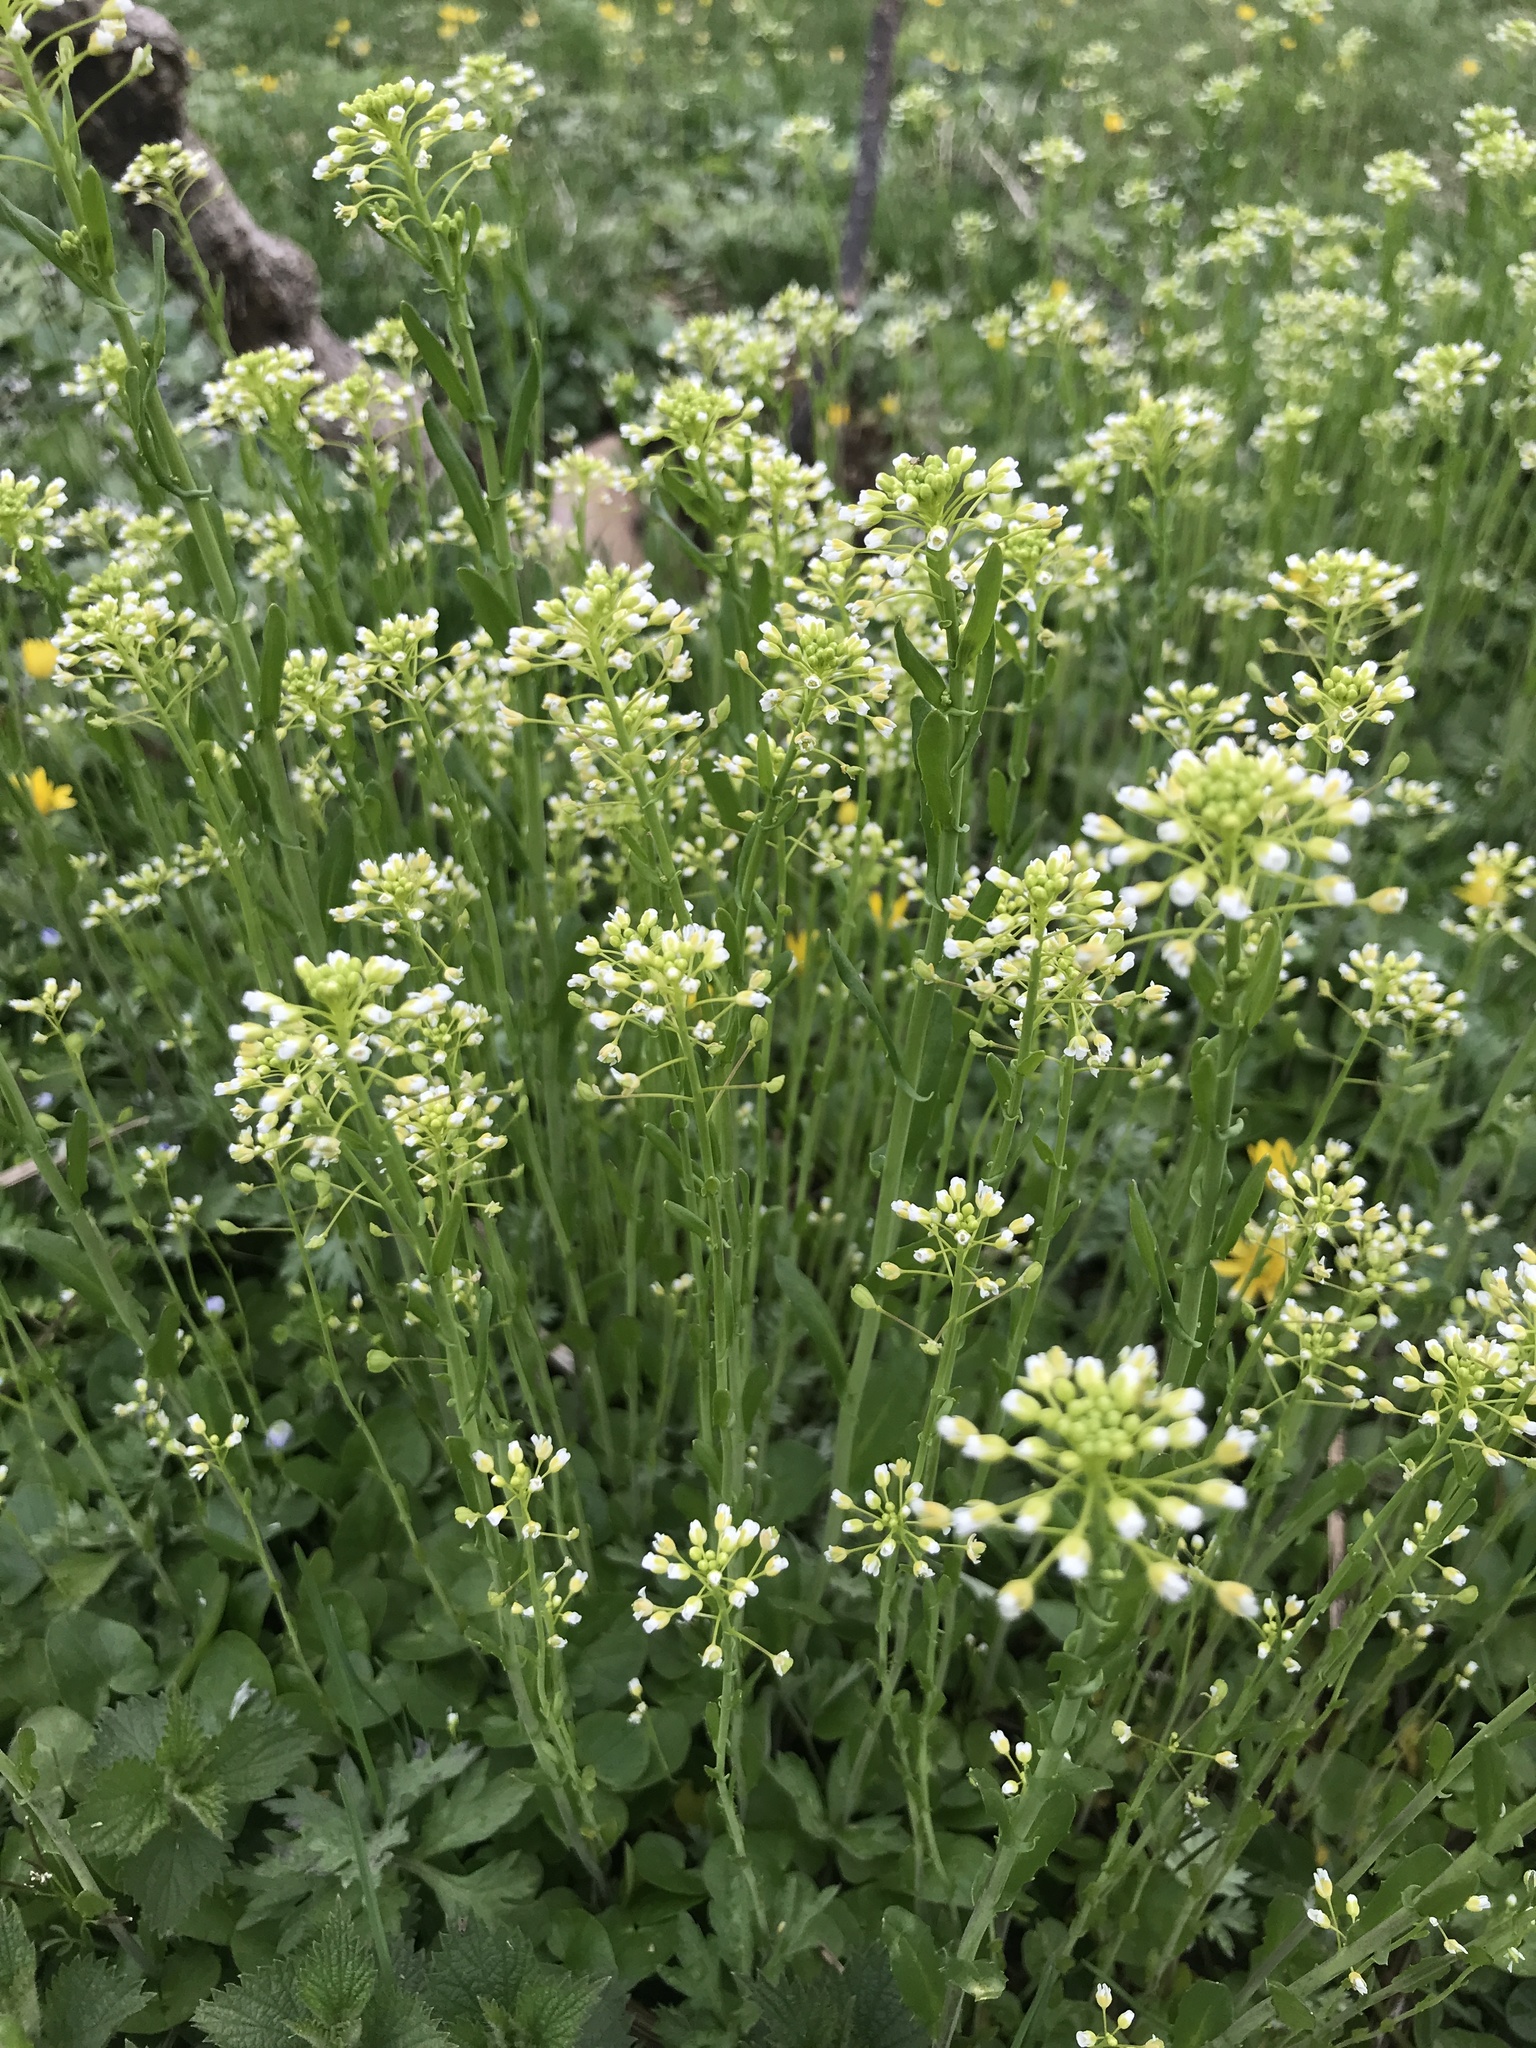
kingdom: Plantae
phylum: Tracheophyta
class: Magnoliopsida
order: Brassicales
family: Brassicaceae
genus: Mummenhoffia
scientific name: Mummenhoffia alliacea
